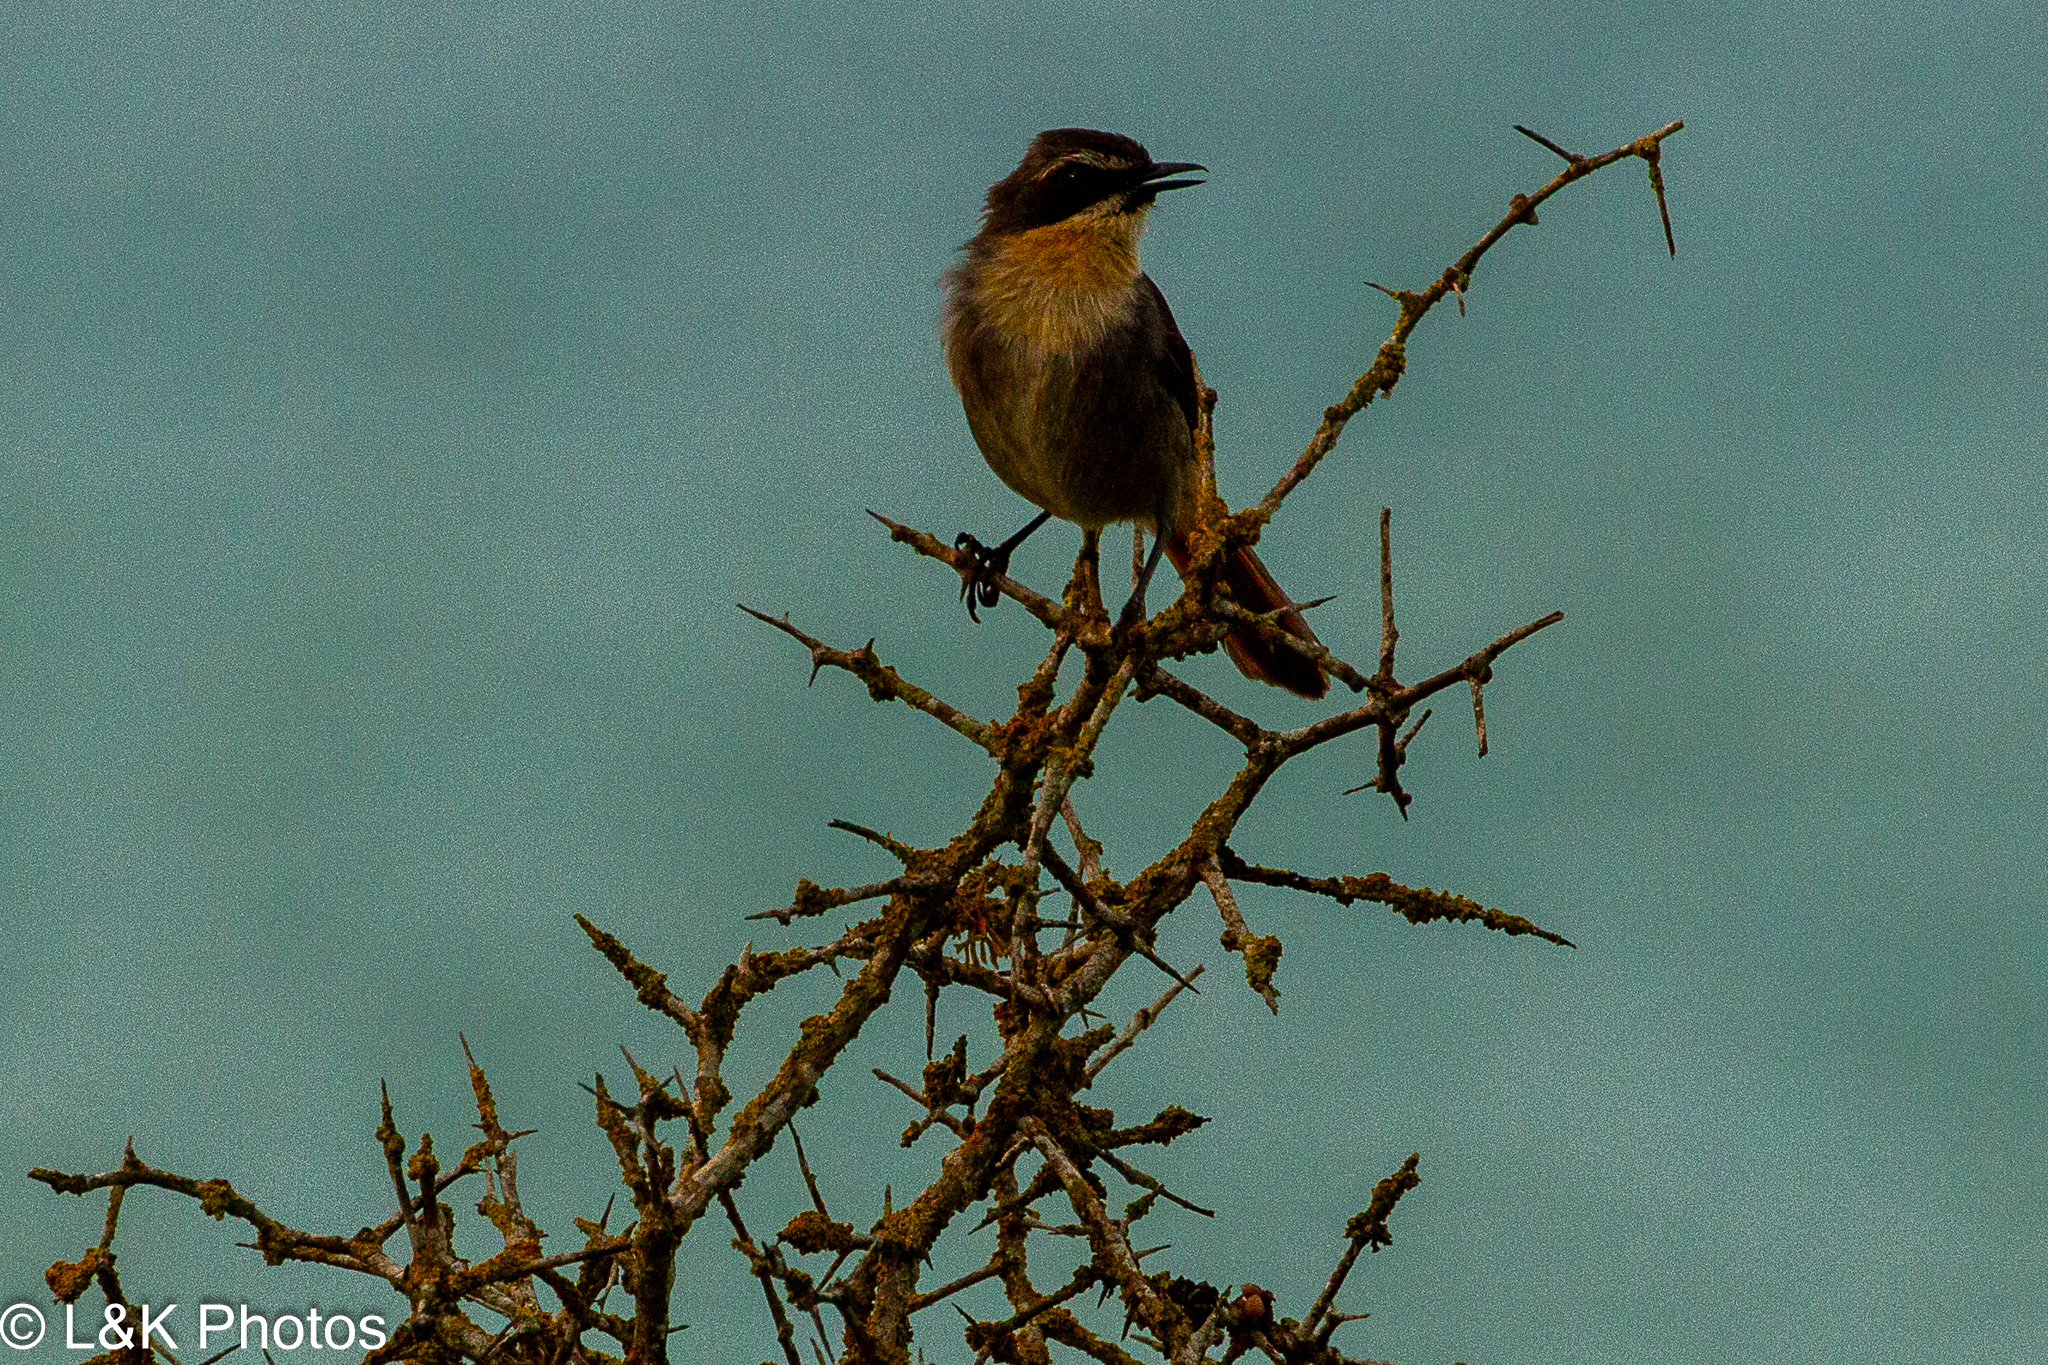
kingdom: Animalia
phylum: Chordata
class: Aves
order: Passeriformes
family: Muscicapidae
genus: Cossypha
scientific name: Cossypha caffra
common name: Cape robin-chat
